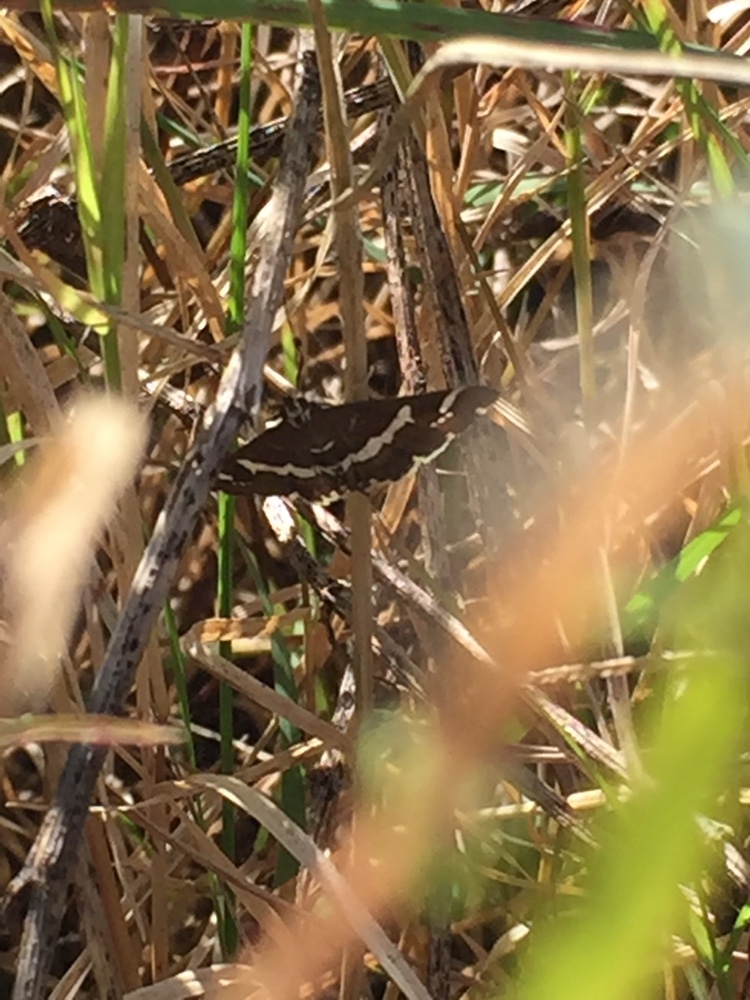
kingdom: Animalia
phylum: Arthropoda
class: Insecta
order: Lepidoptera
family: Crambidae
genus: Spoladea
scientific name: Spoladea recurvalis
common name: Beet webworm moth
